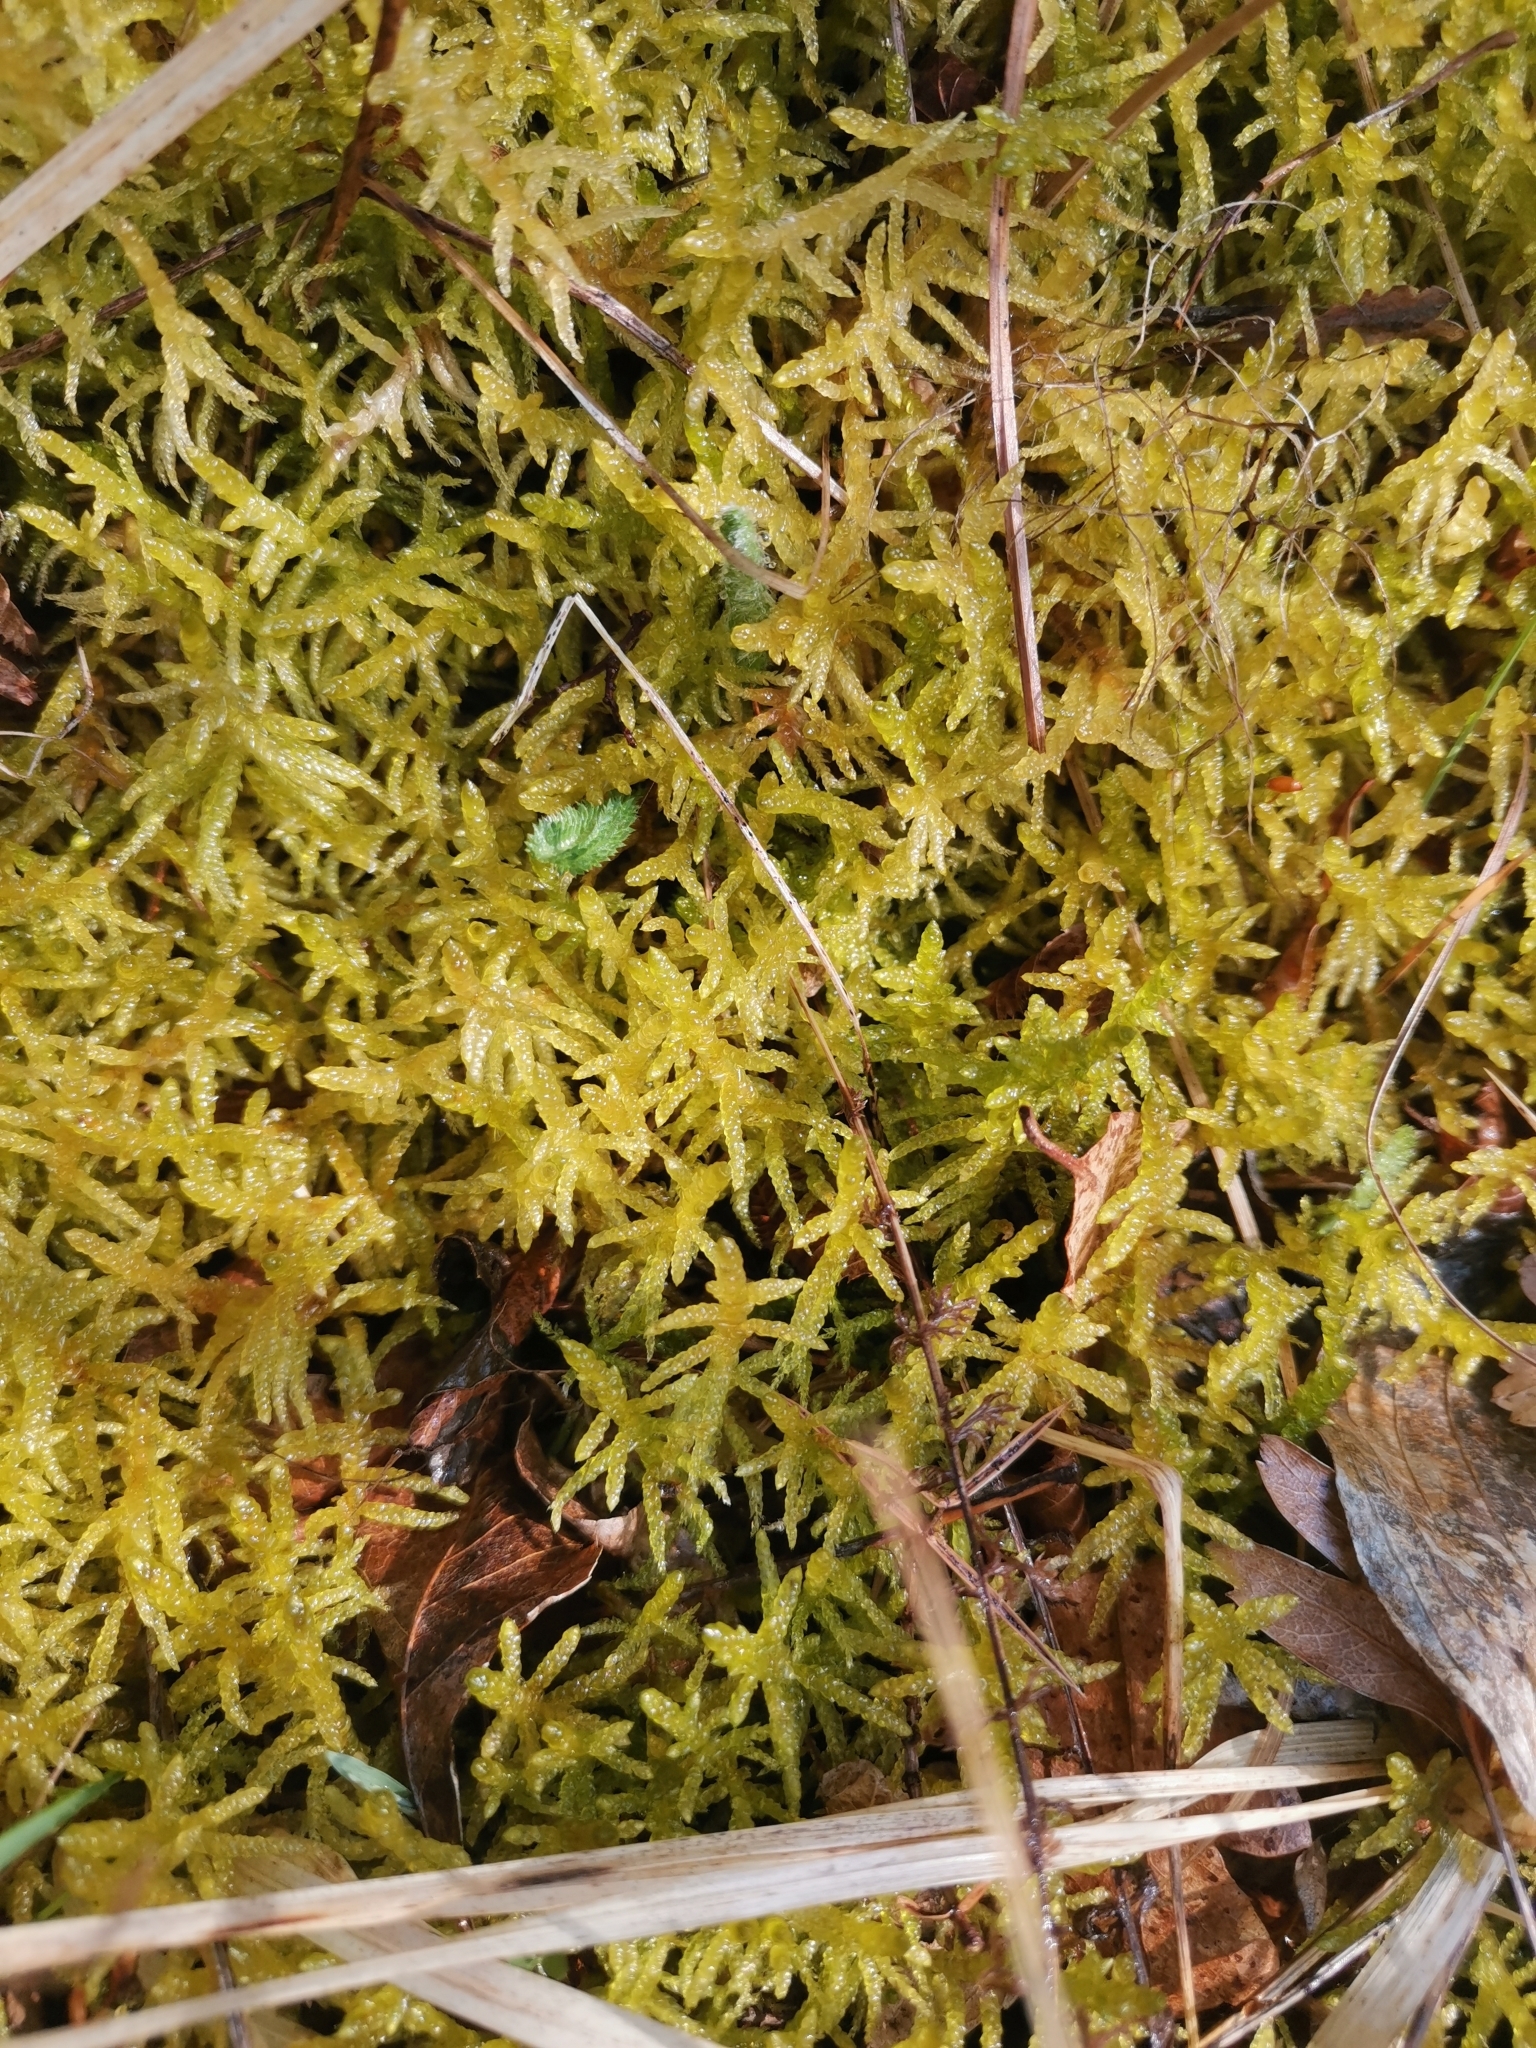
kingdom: Plantae
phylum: Bryophyta
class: Bryopsida
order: Hypnales
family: Brachytheciaceae
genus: Pseudoscleropodium
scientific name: Pseudoscleropodium purum
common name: Neat feather-moss
